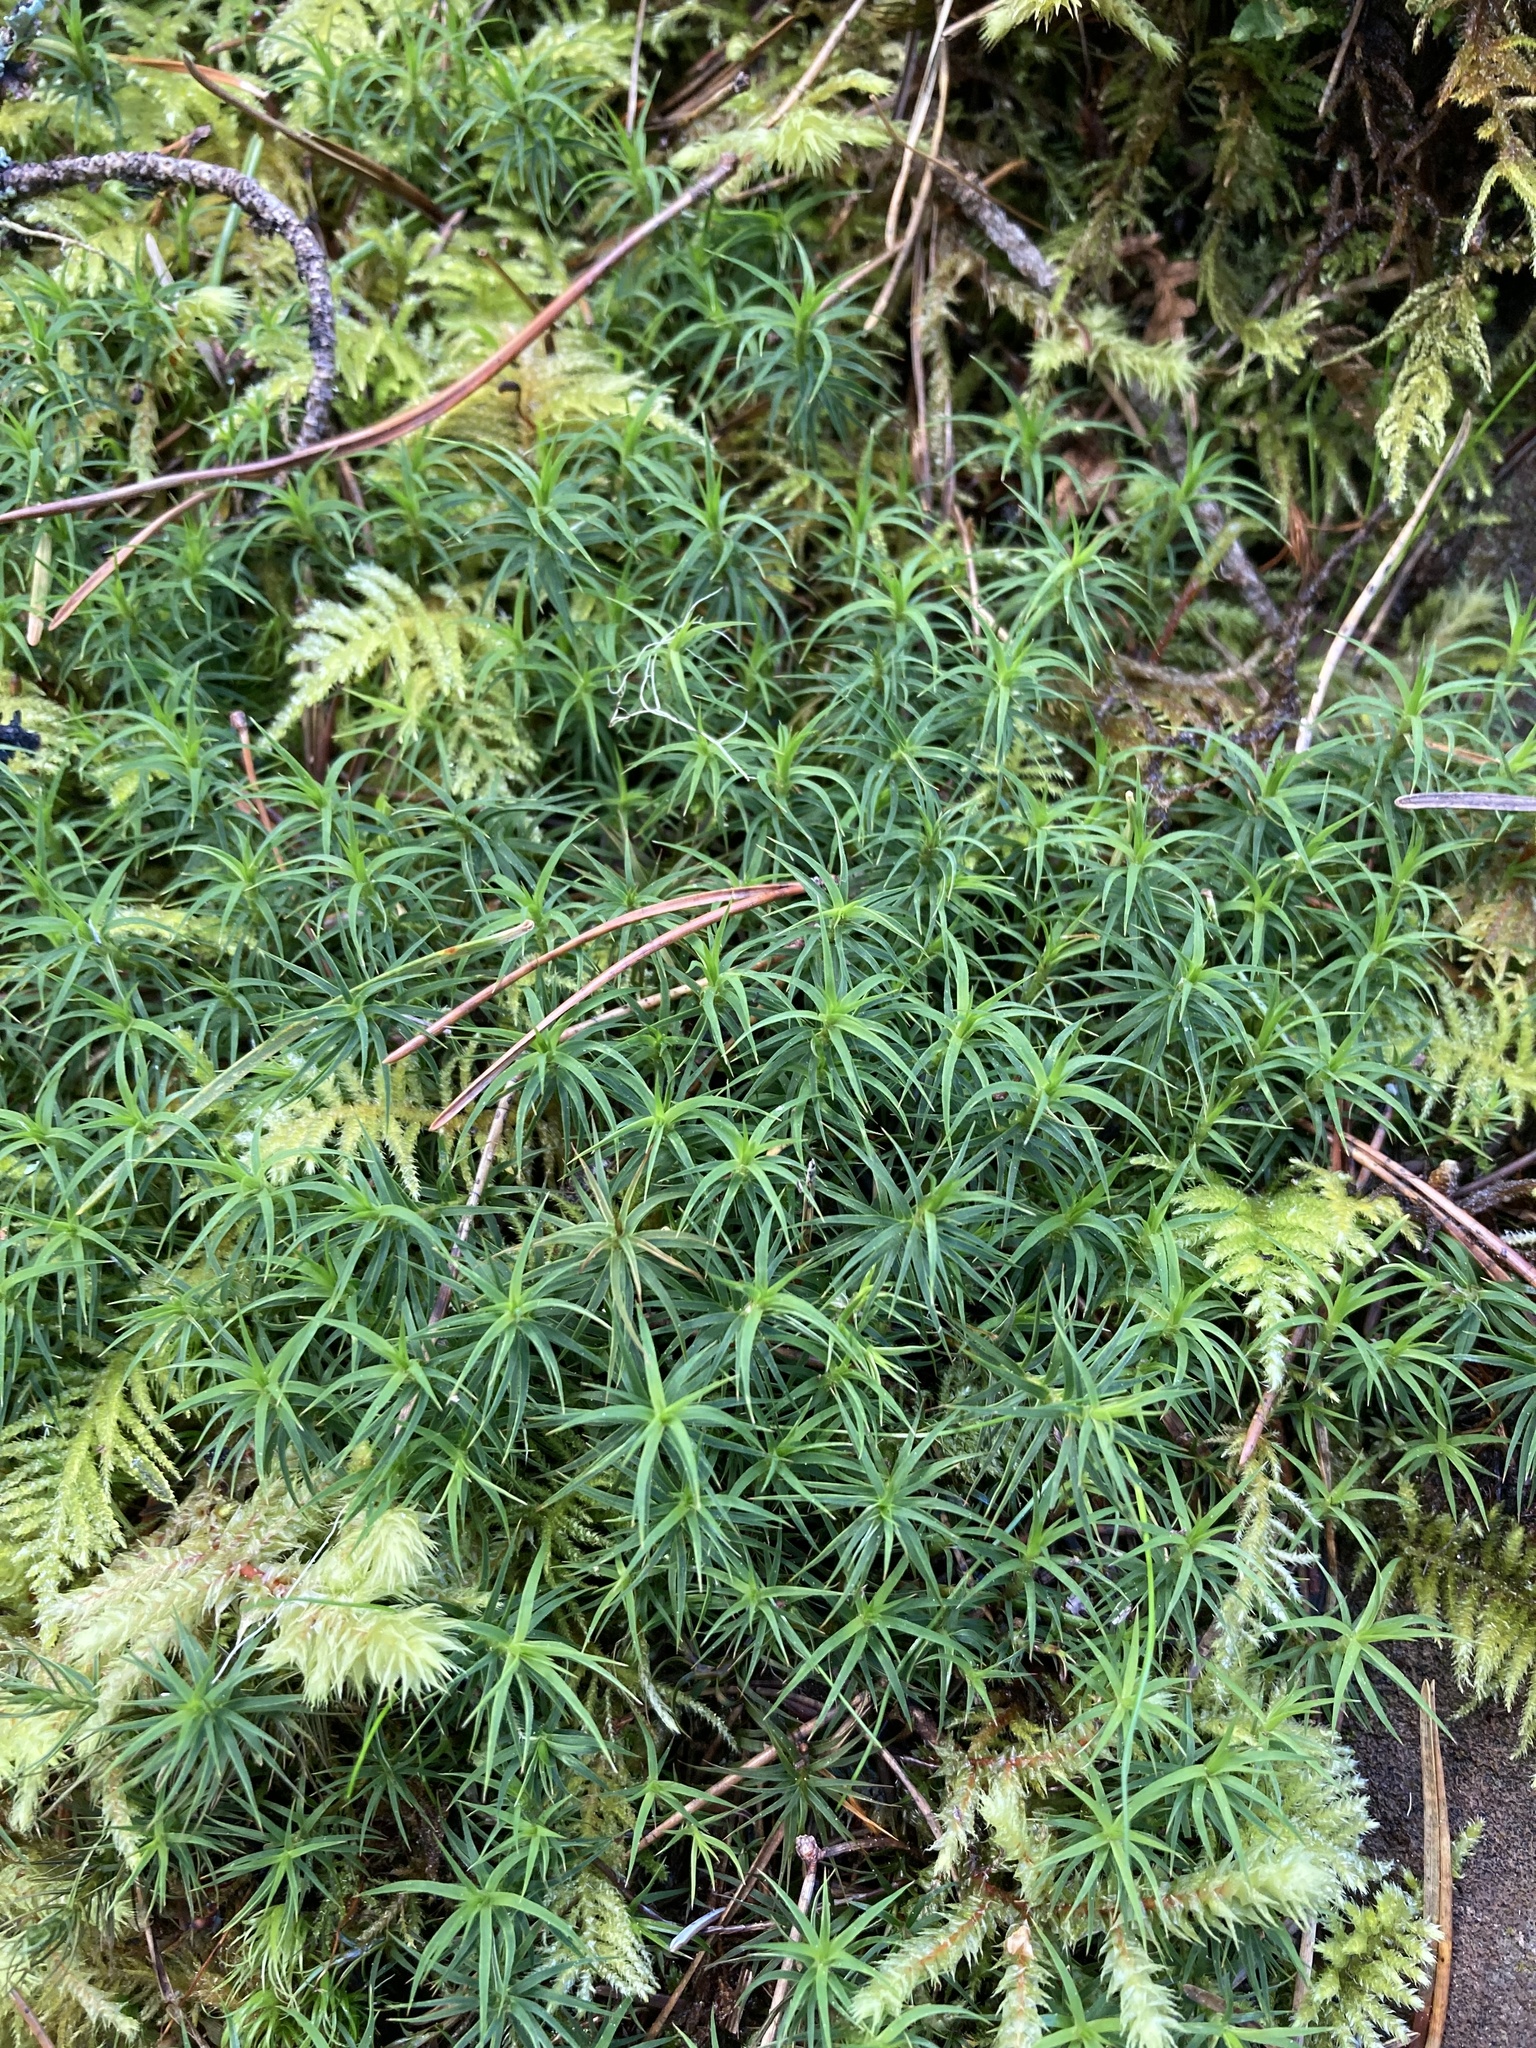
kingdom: Plantae
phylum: Bryophyta
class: Polytrichopsida
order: Polytrichales
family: Polytrichaceae
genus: Polytrichastrum
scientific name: Polytrichastrum alpinum
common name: Alpine haircap
